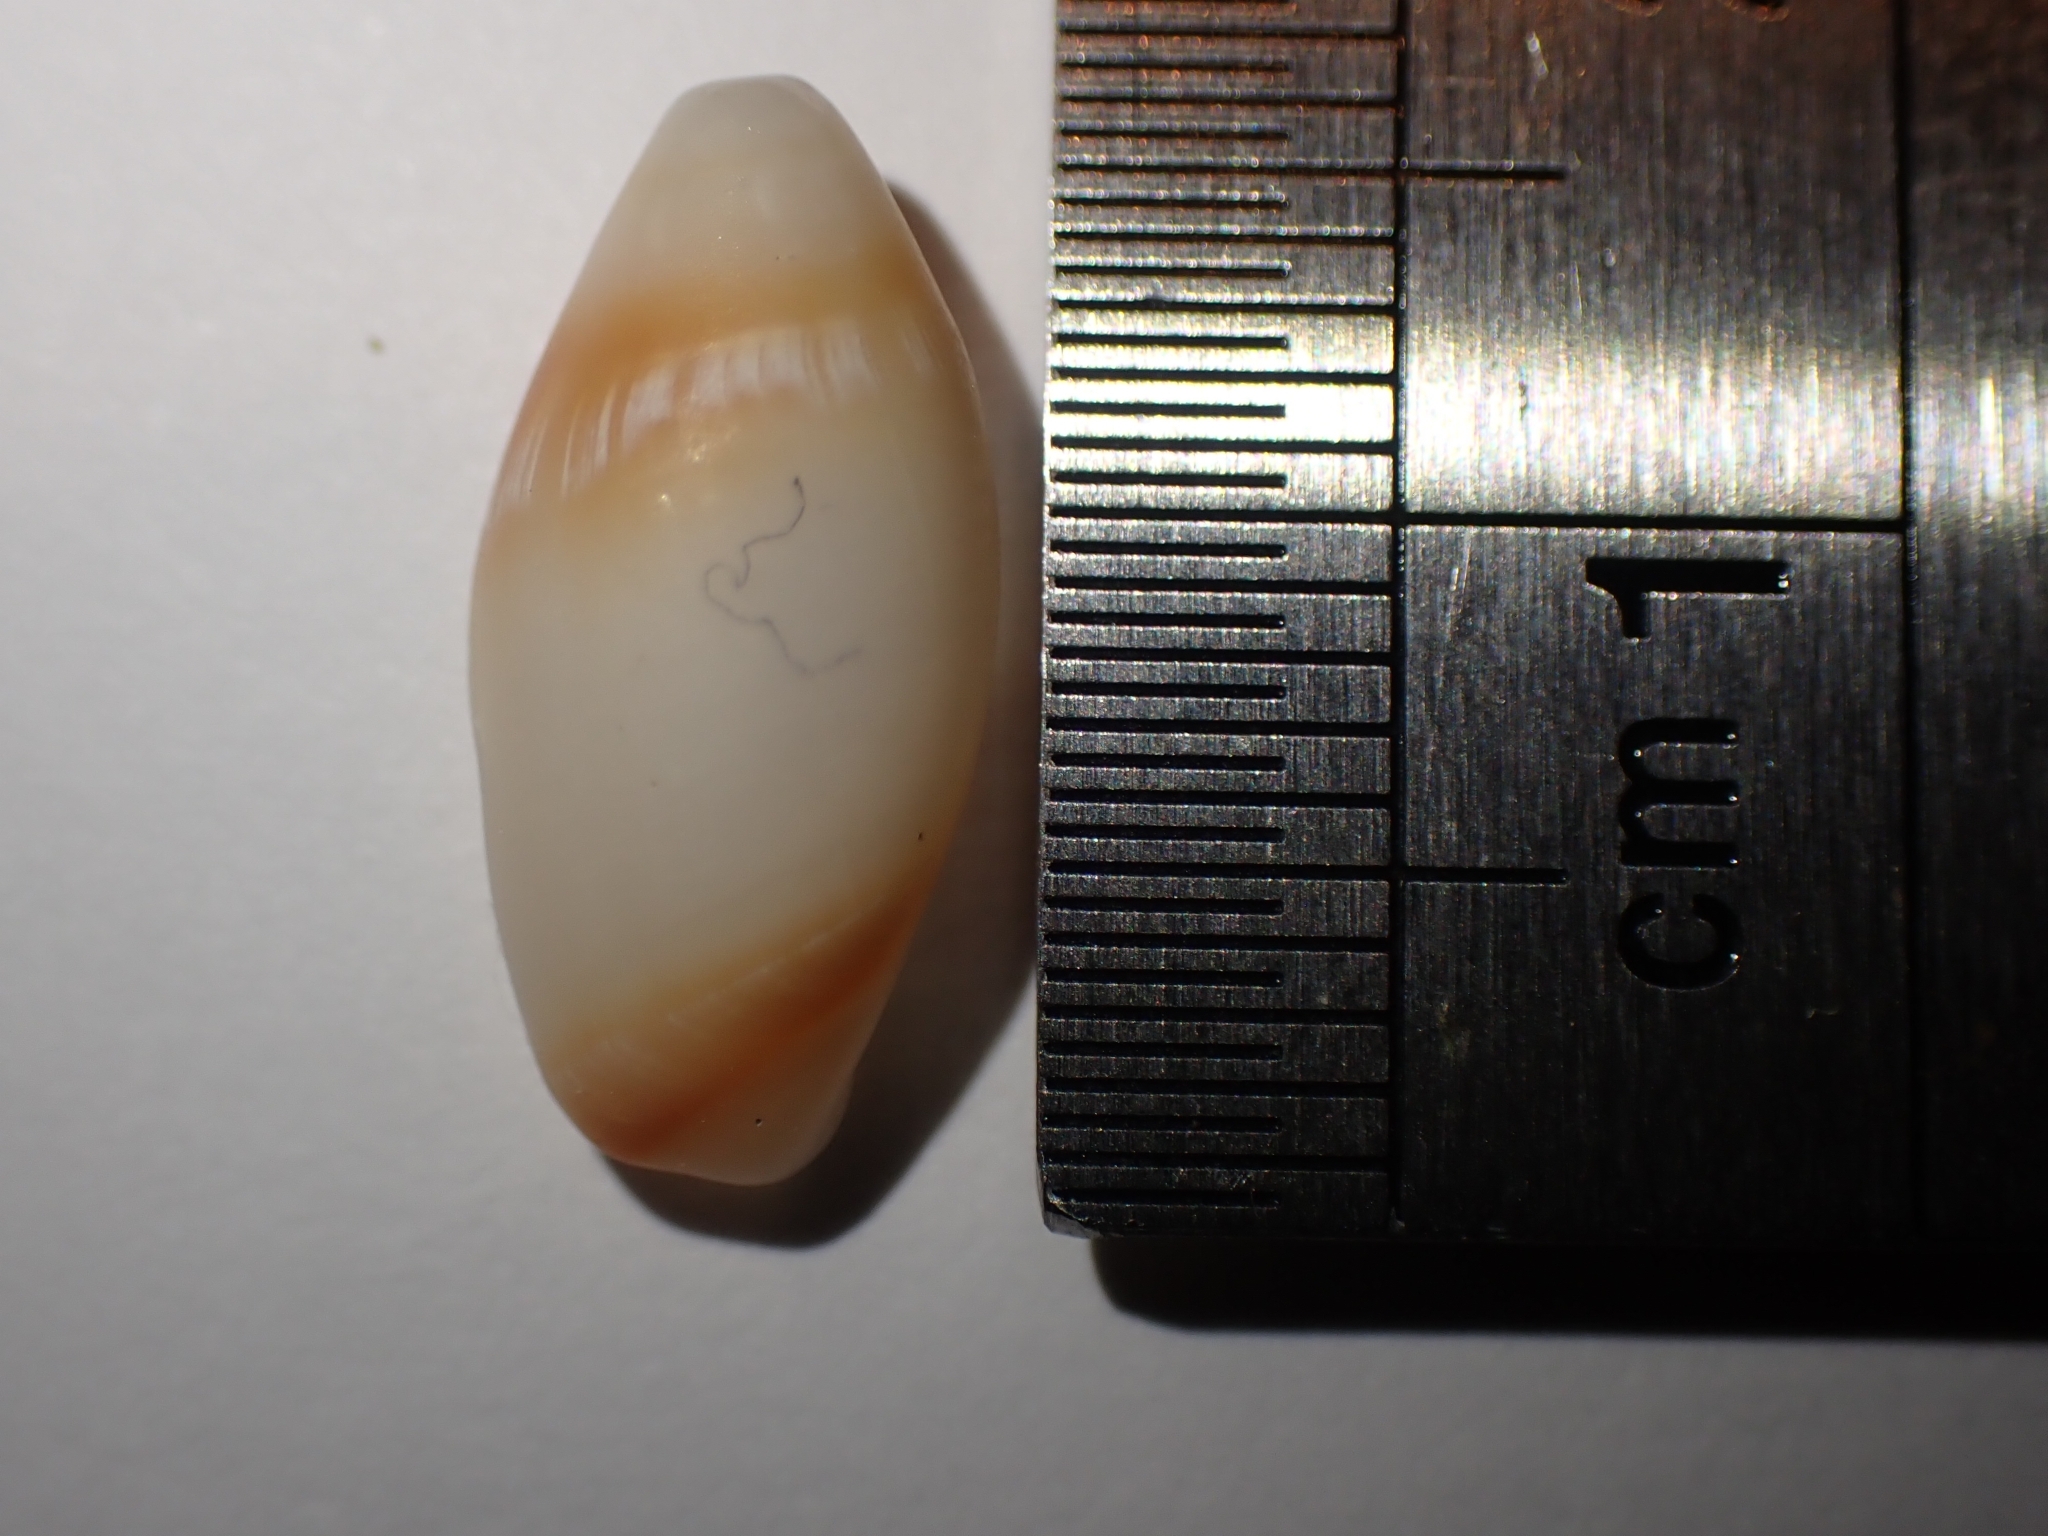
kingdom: Animalia
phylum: Mollusca
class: Gastropoda
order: Neogastropoda
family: Ancillariidae
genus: Amalda
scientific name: Amalda australis
